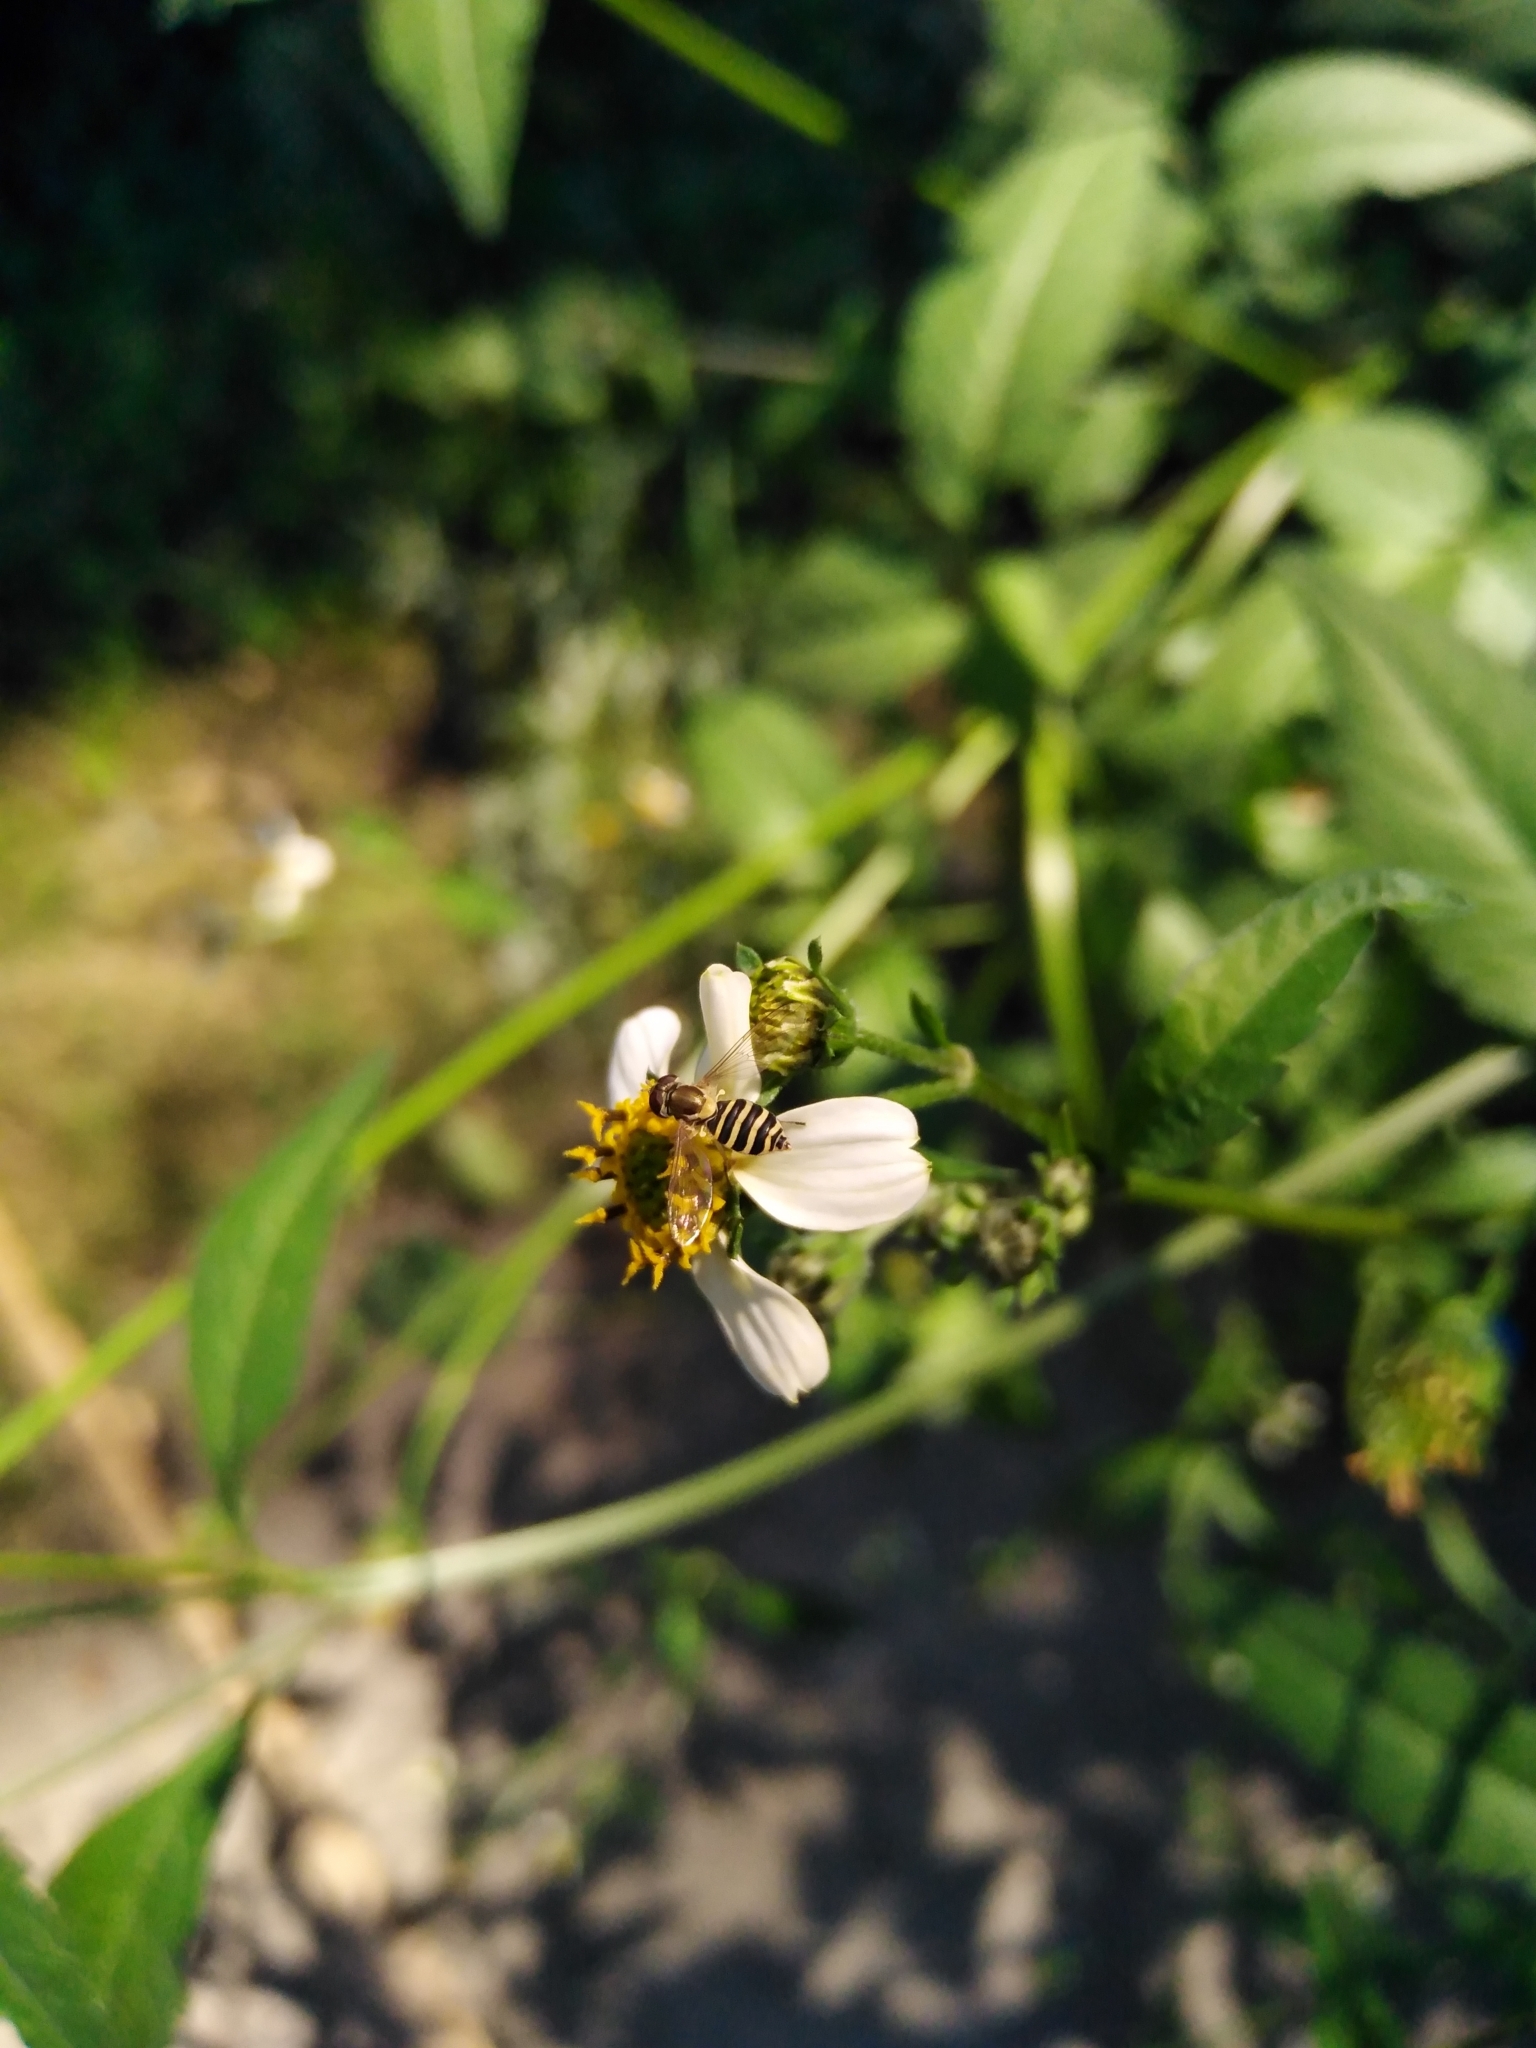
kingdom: Animalia
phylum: Arthropoda
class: Insecta
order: Diptera
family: Syrphidae
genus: Toxomerus
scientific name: Toxomerus calceolatus
